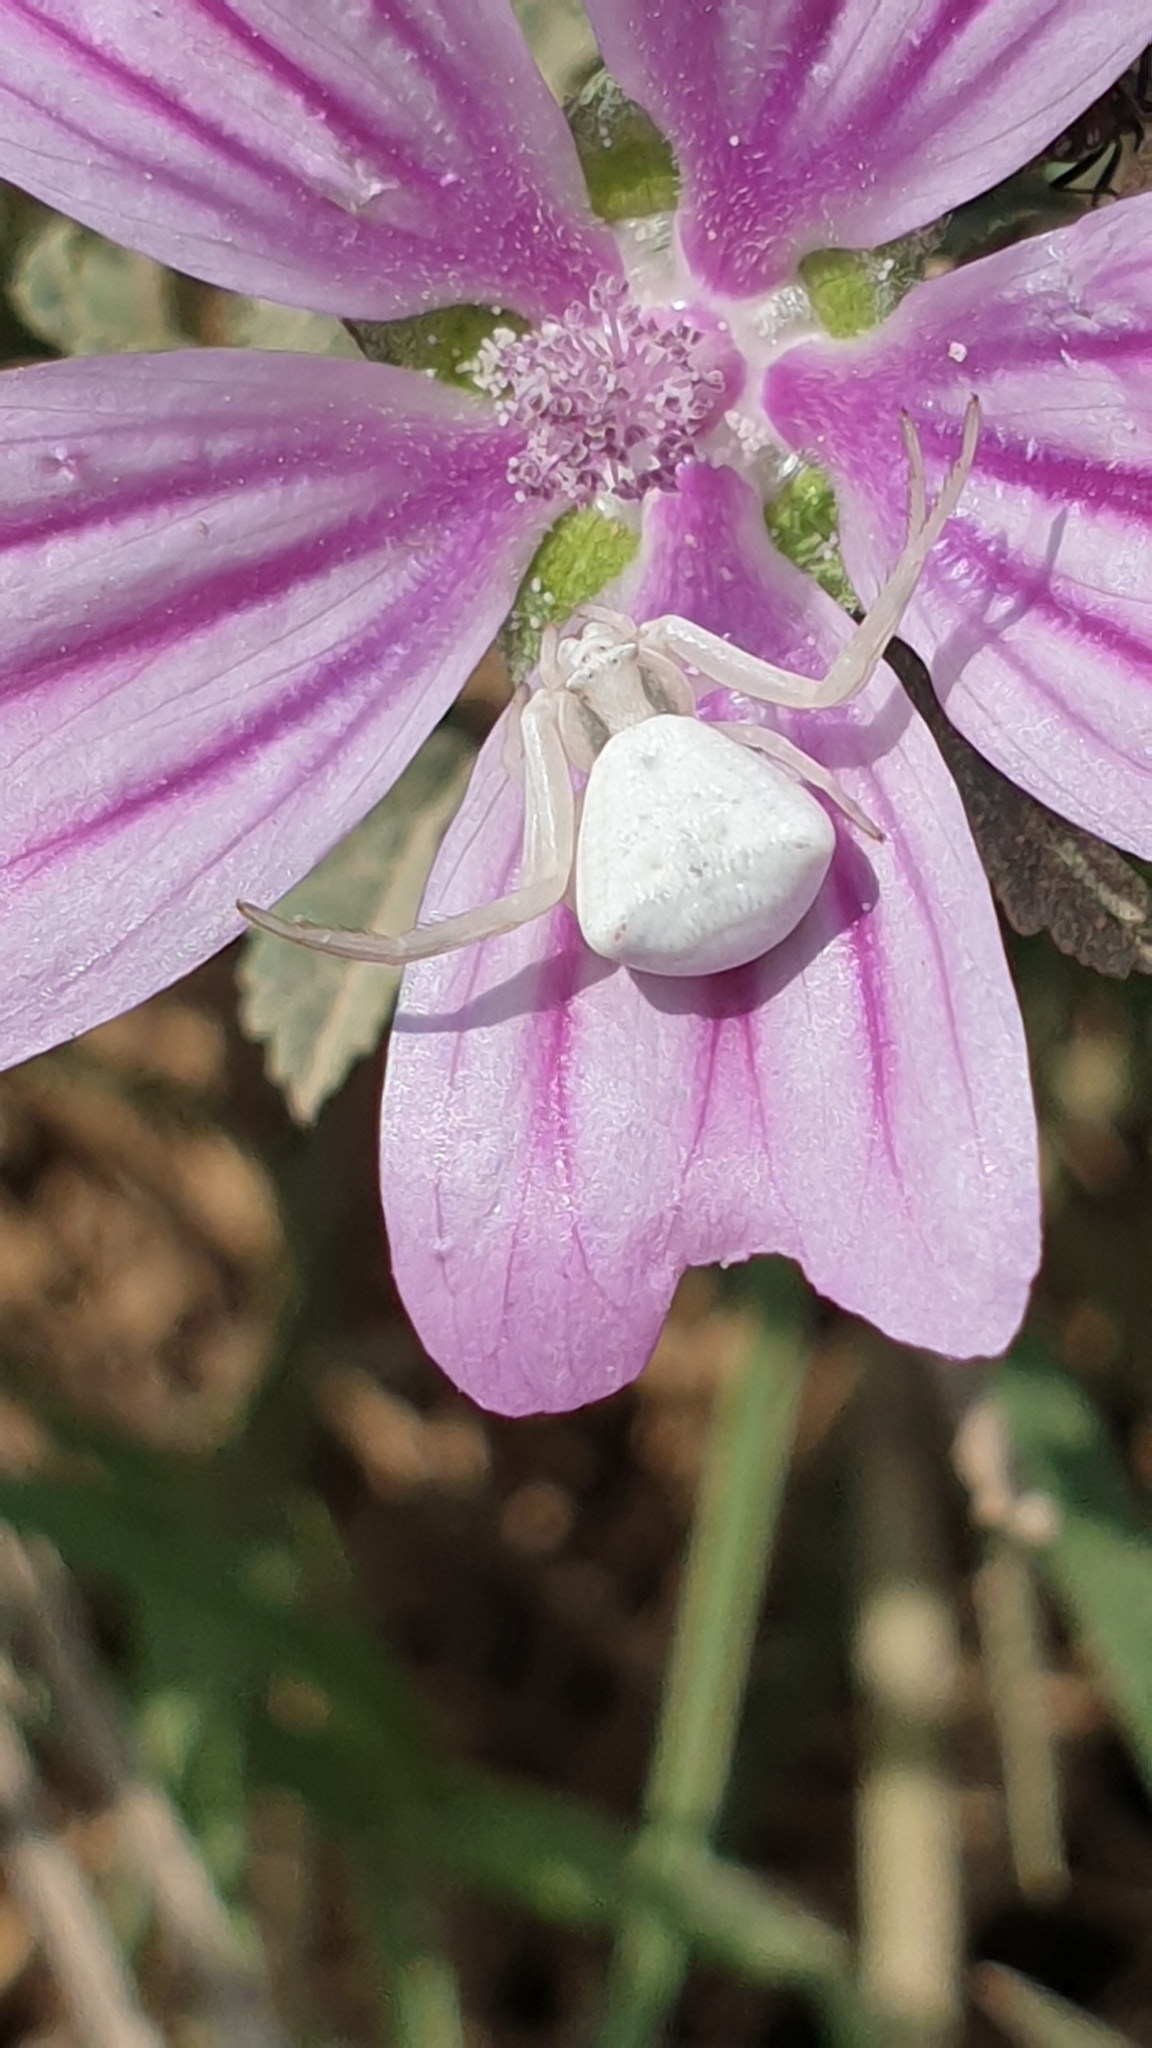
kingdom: Animalia
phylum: Arthropoda
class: Arachnida
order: Araneae
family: Thomisidae
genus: Thomisus
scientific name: Thomisus onustus
